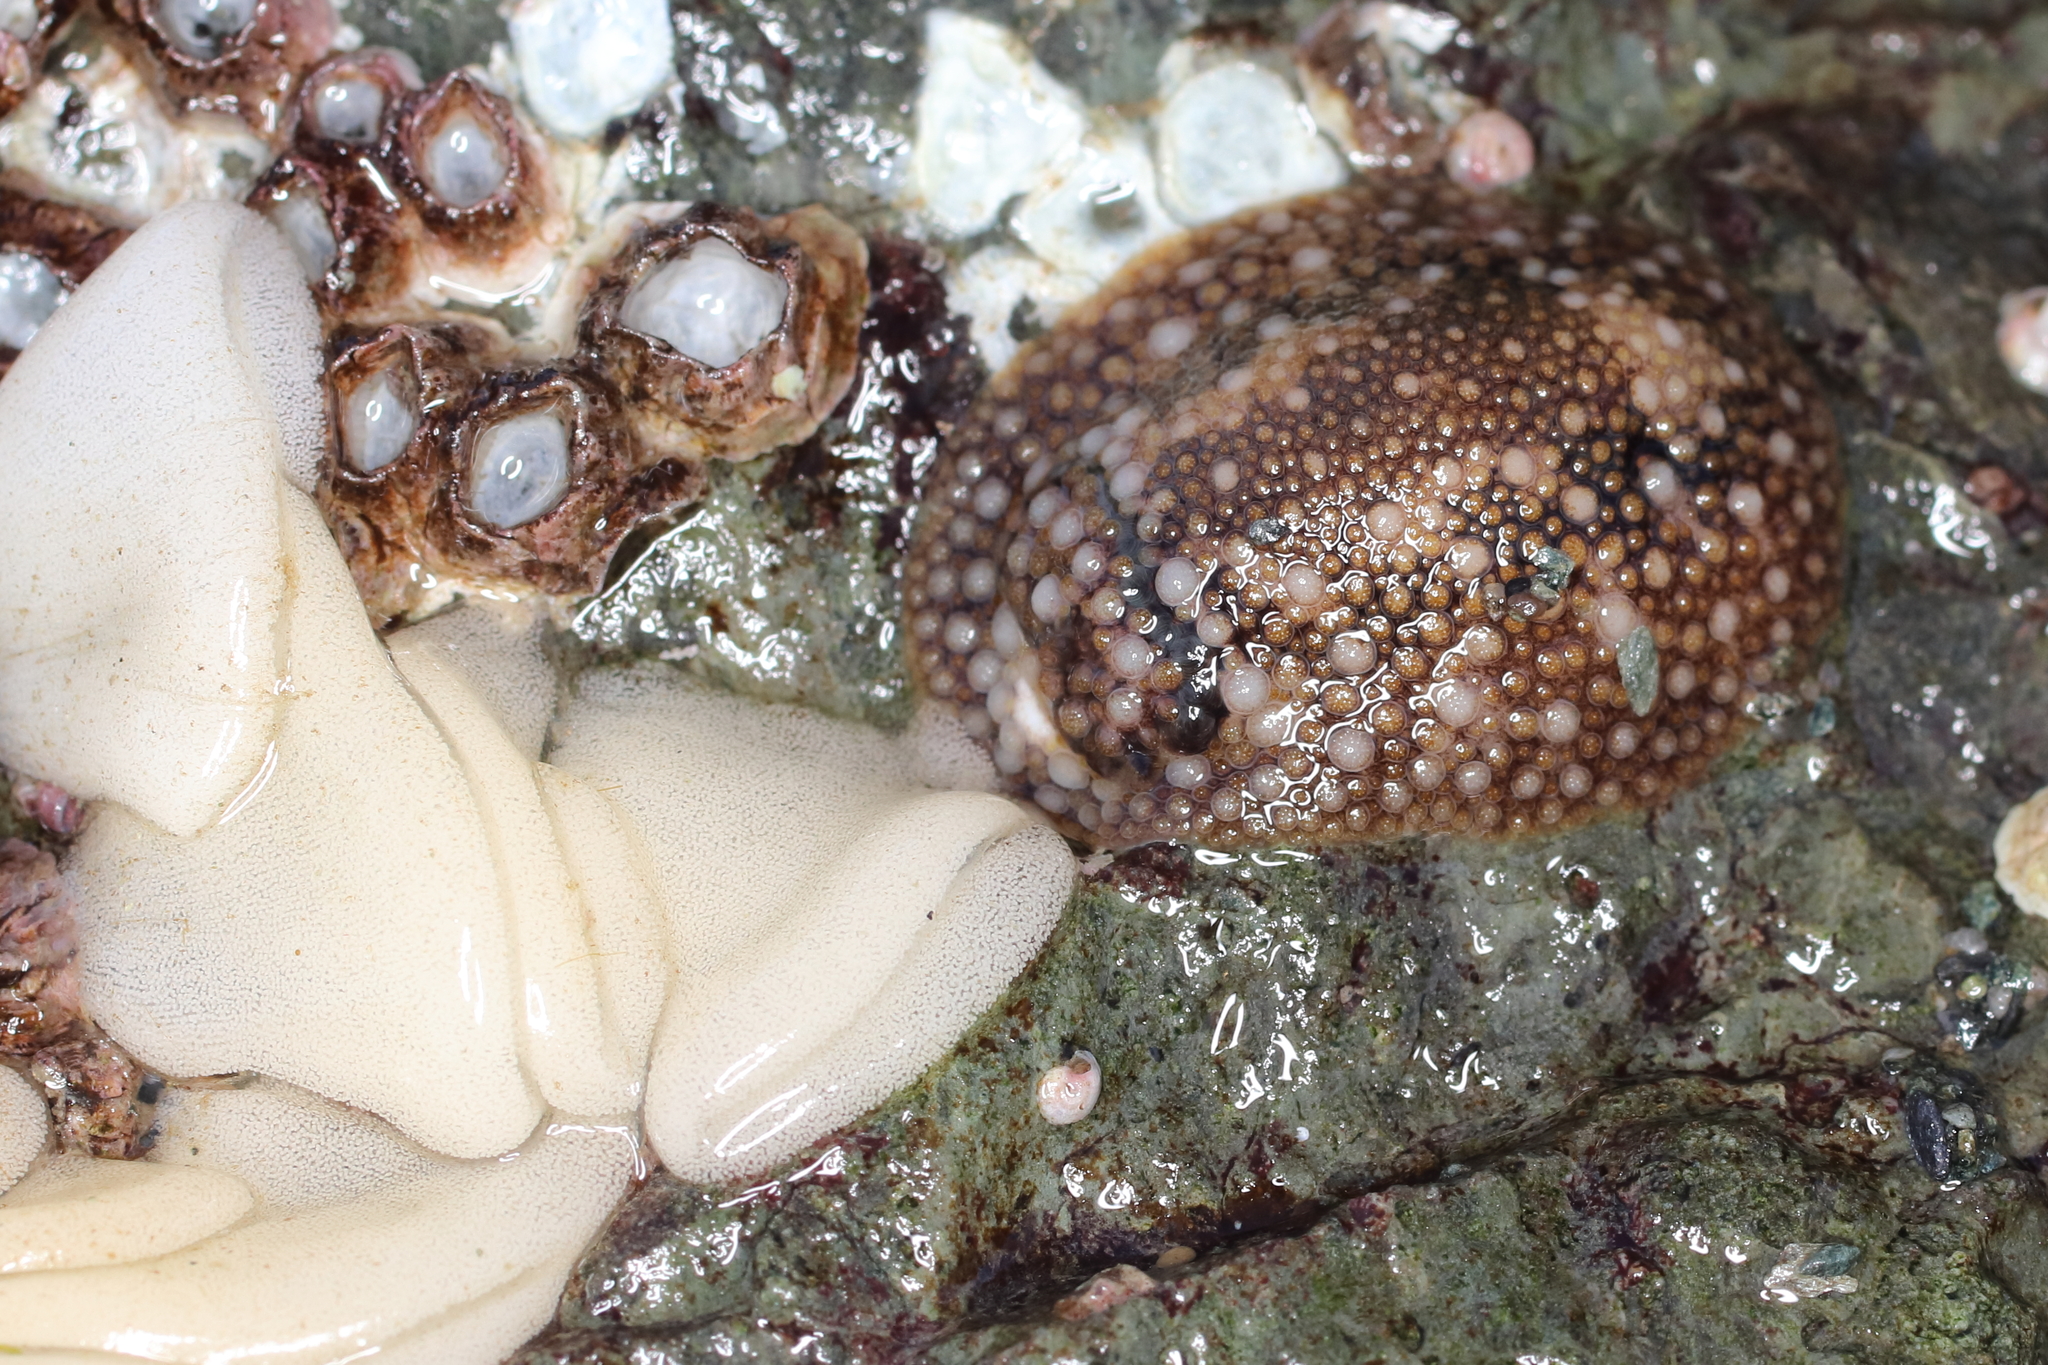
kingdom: Animalia
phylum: Mollusca
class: Gastropoda
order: Nudibranchia
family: Onchidorididae
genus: Onchidoris
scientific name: Onchidoris bilamellata
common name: Barnacle-eating onchidoris
